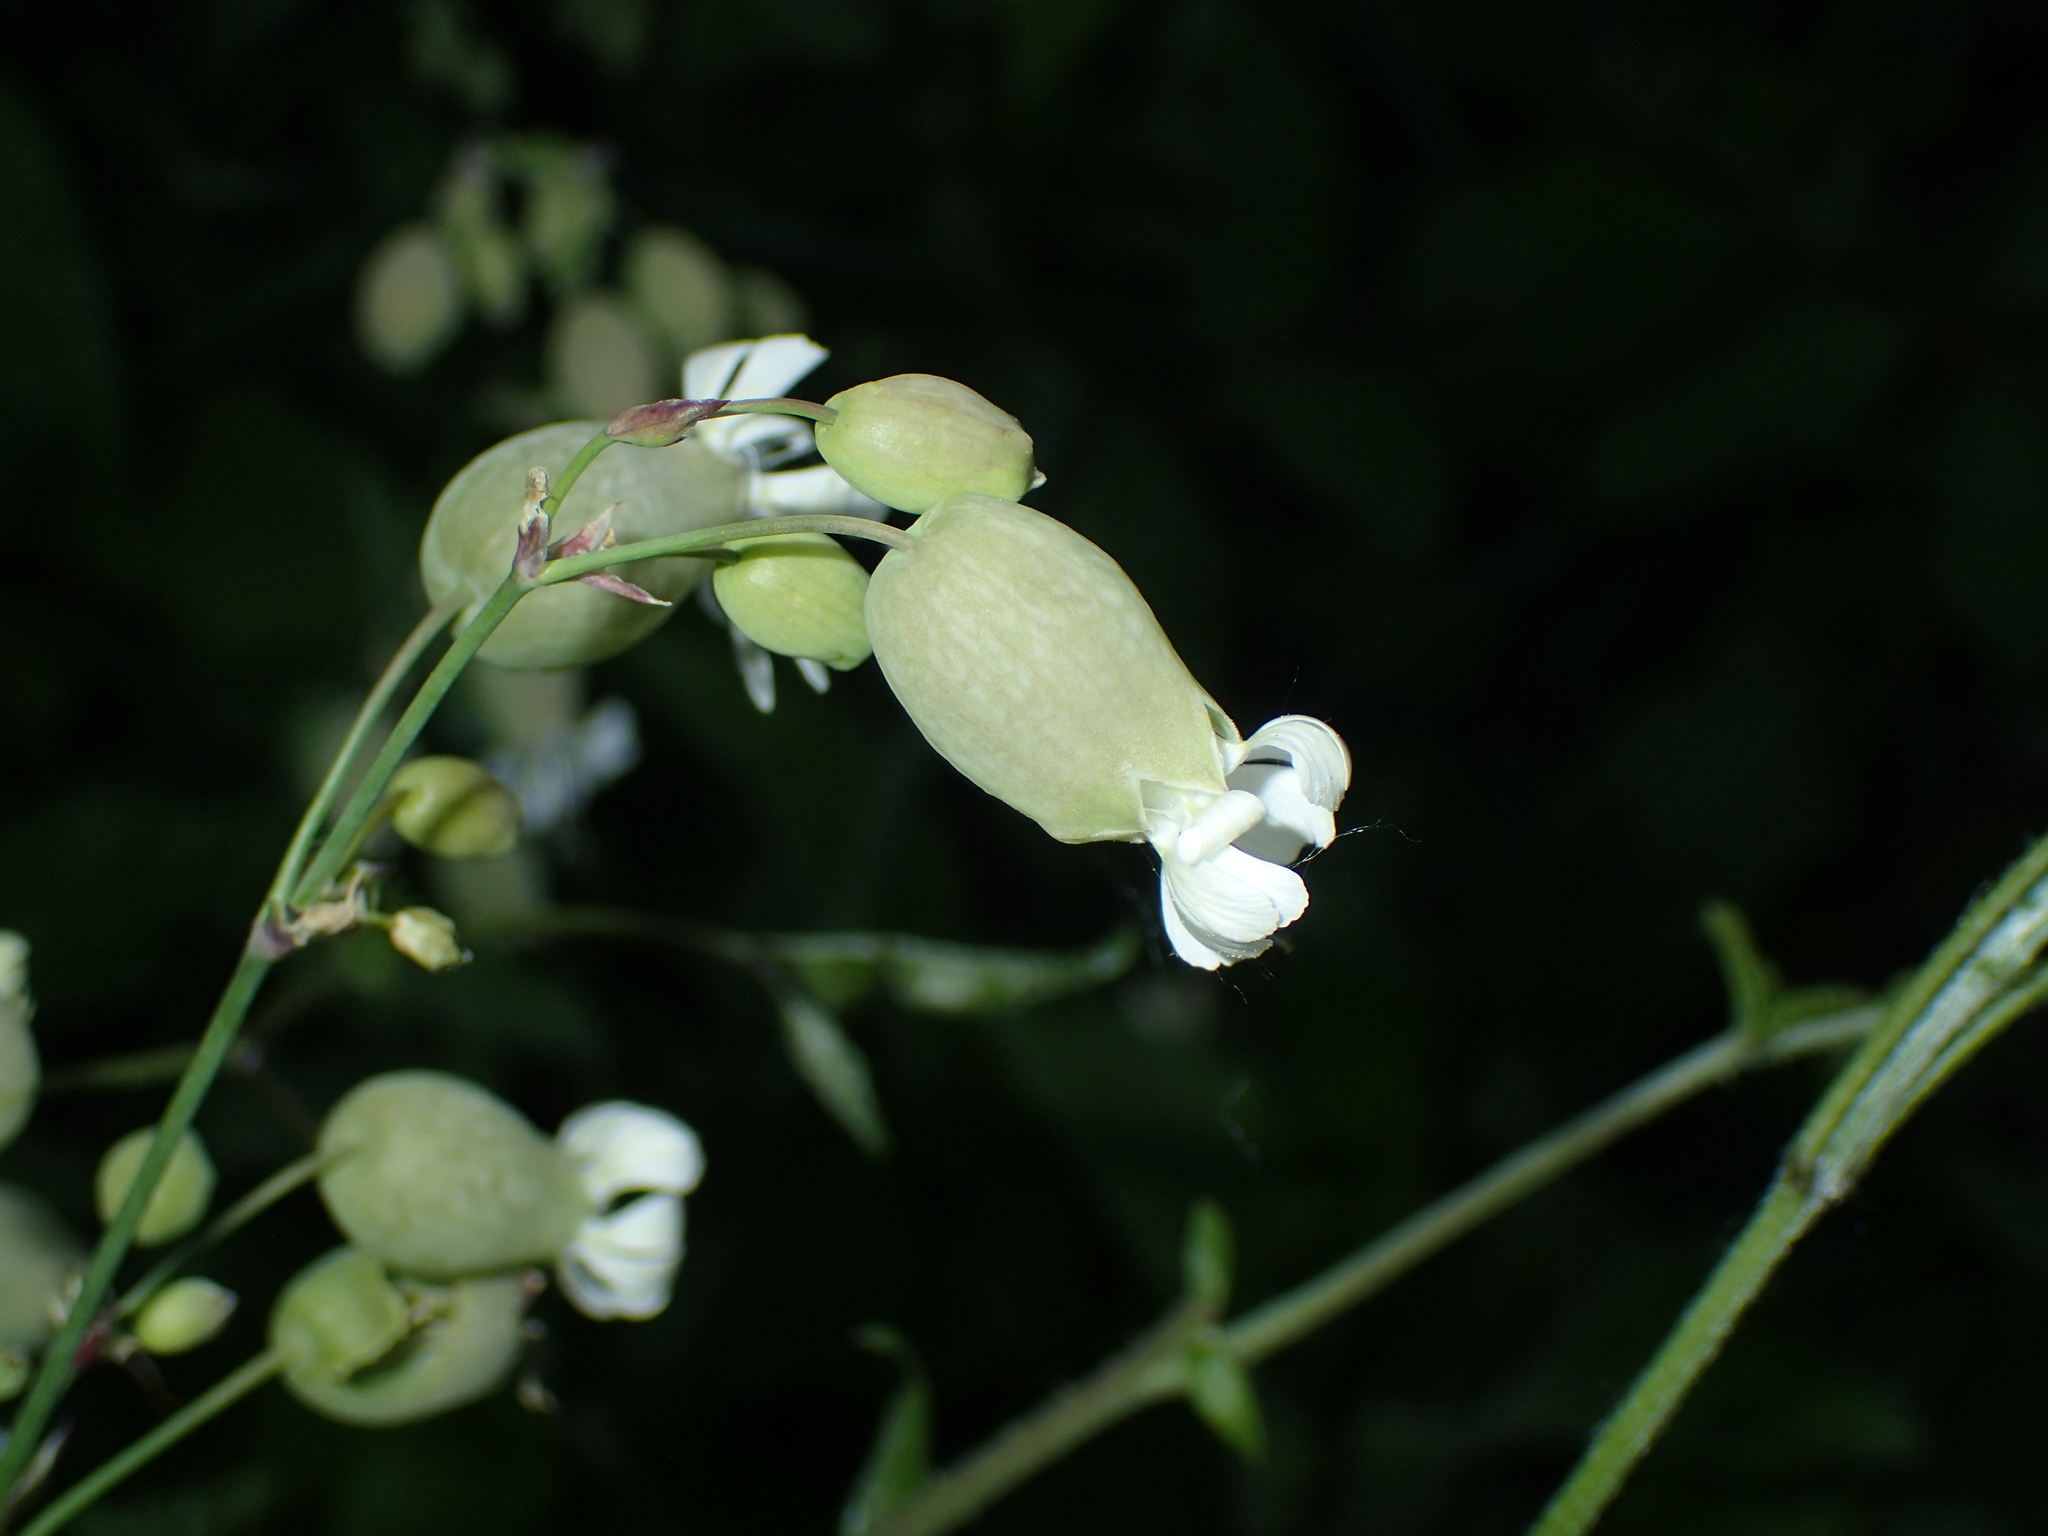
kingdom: Plantae
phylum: Tracheophyta
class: Magnoliopsida
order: Caryophyllales
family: Caryophyllaceae
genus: Silene
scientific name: Silene vulgaris
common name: Bladder campion
